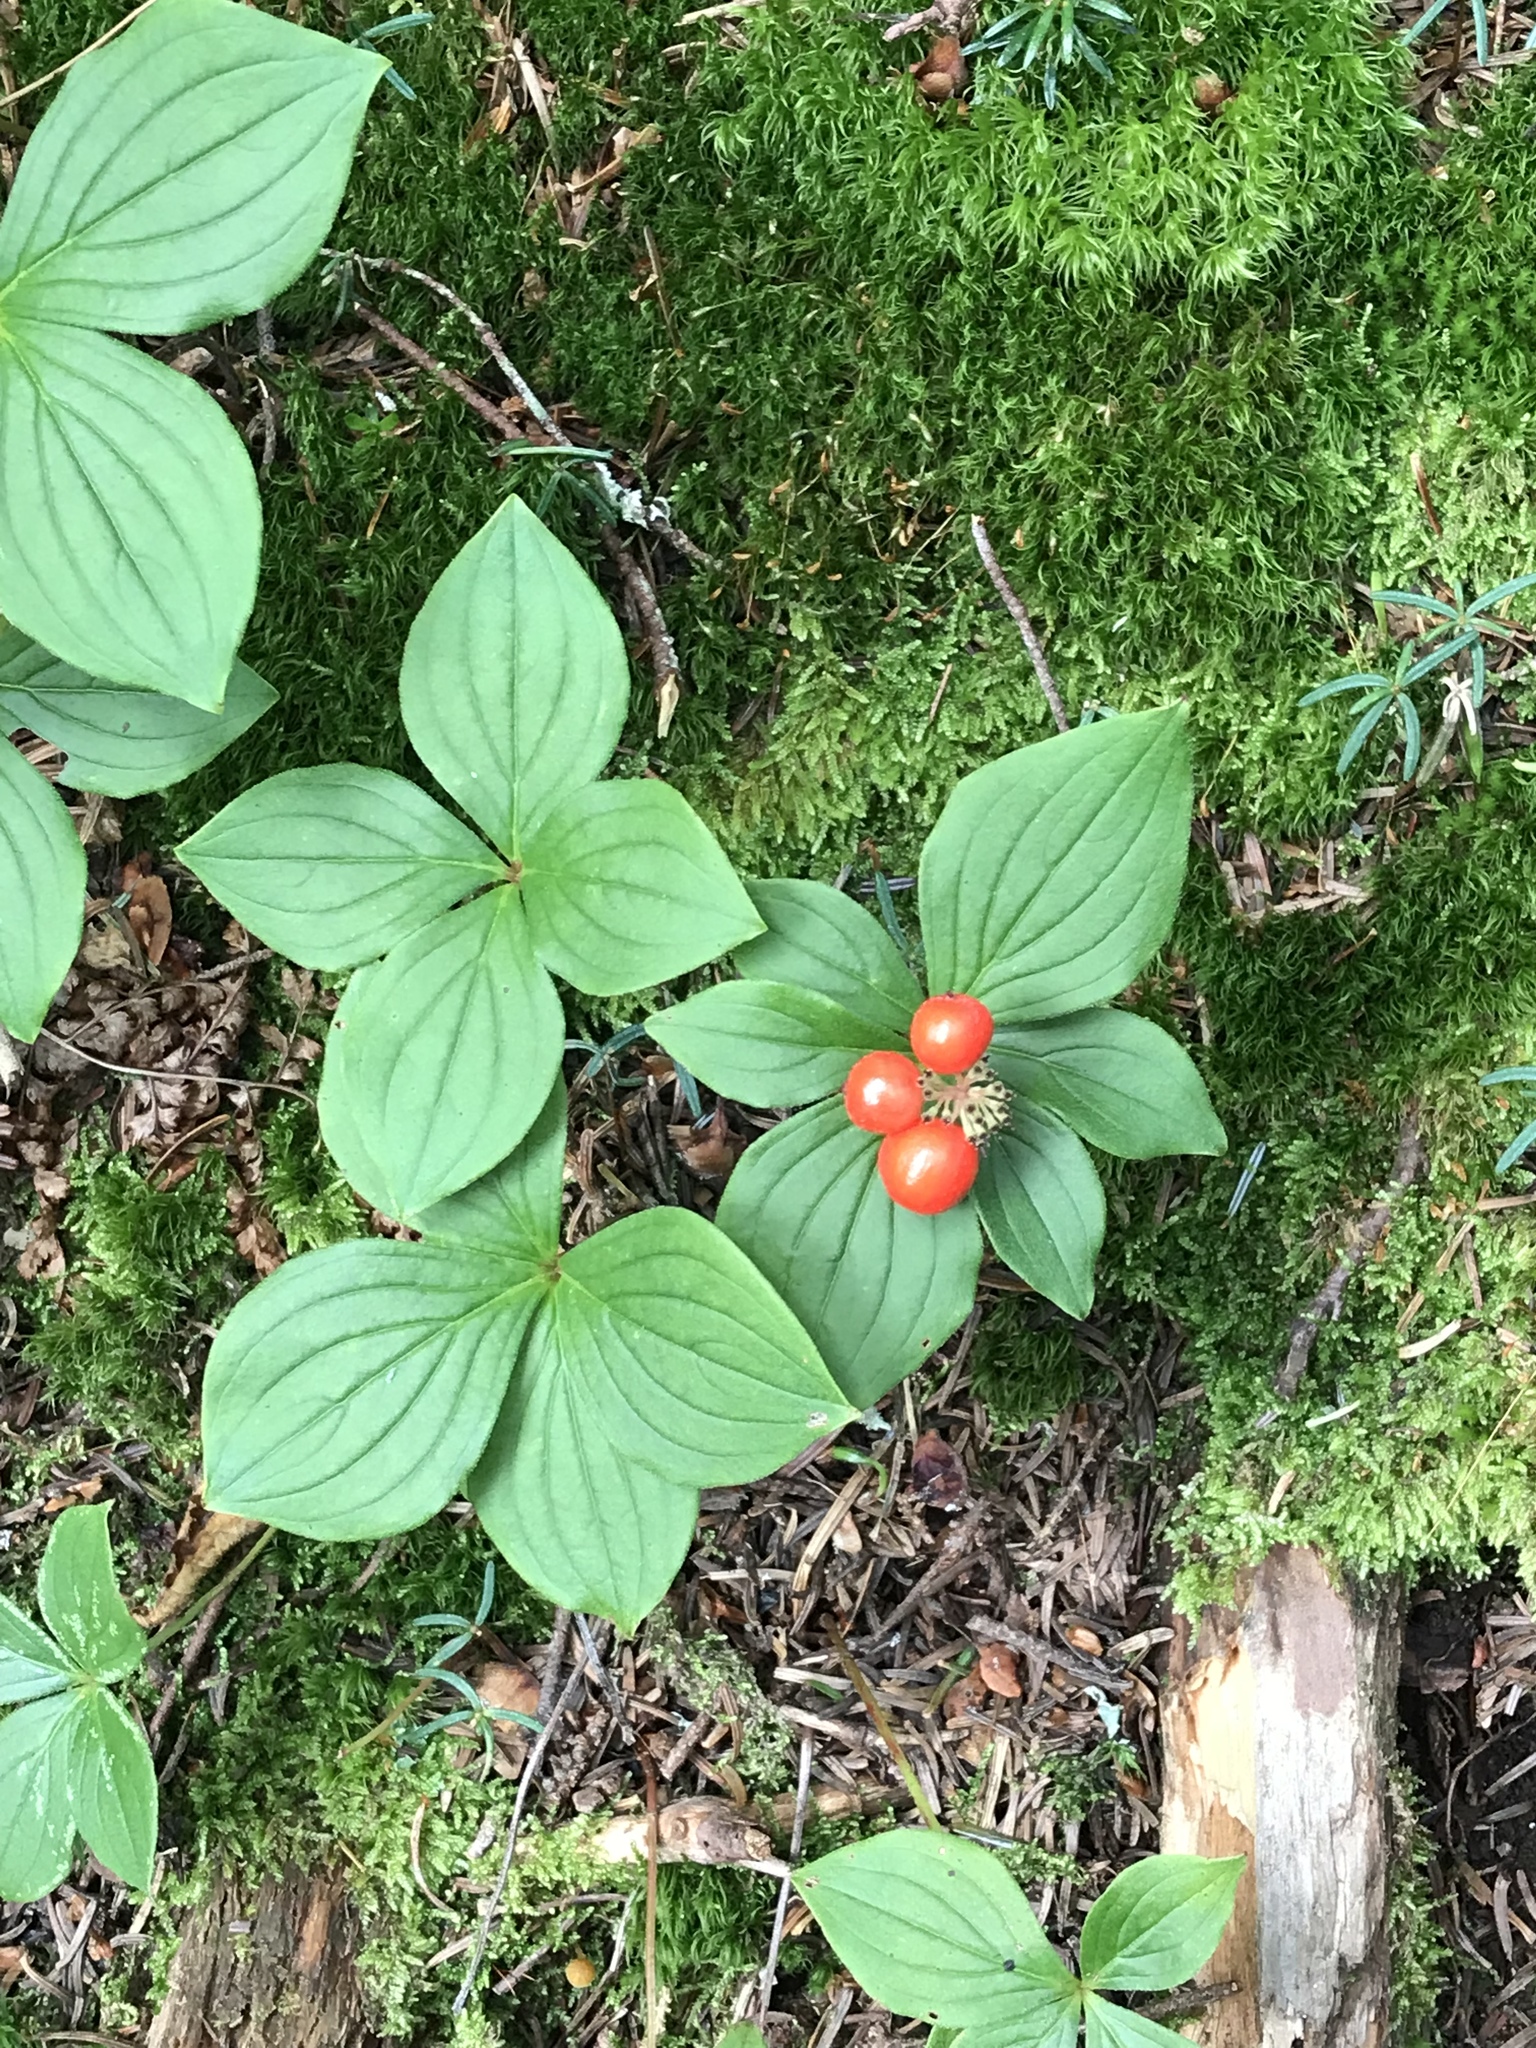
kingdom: Plantae
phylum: Tracheophyta
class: Magnoliopsida
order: Cornales
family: Cornaceae
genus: Cornus
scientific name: Cornus canadensis
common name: Creeping dogwood
